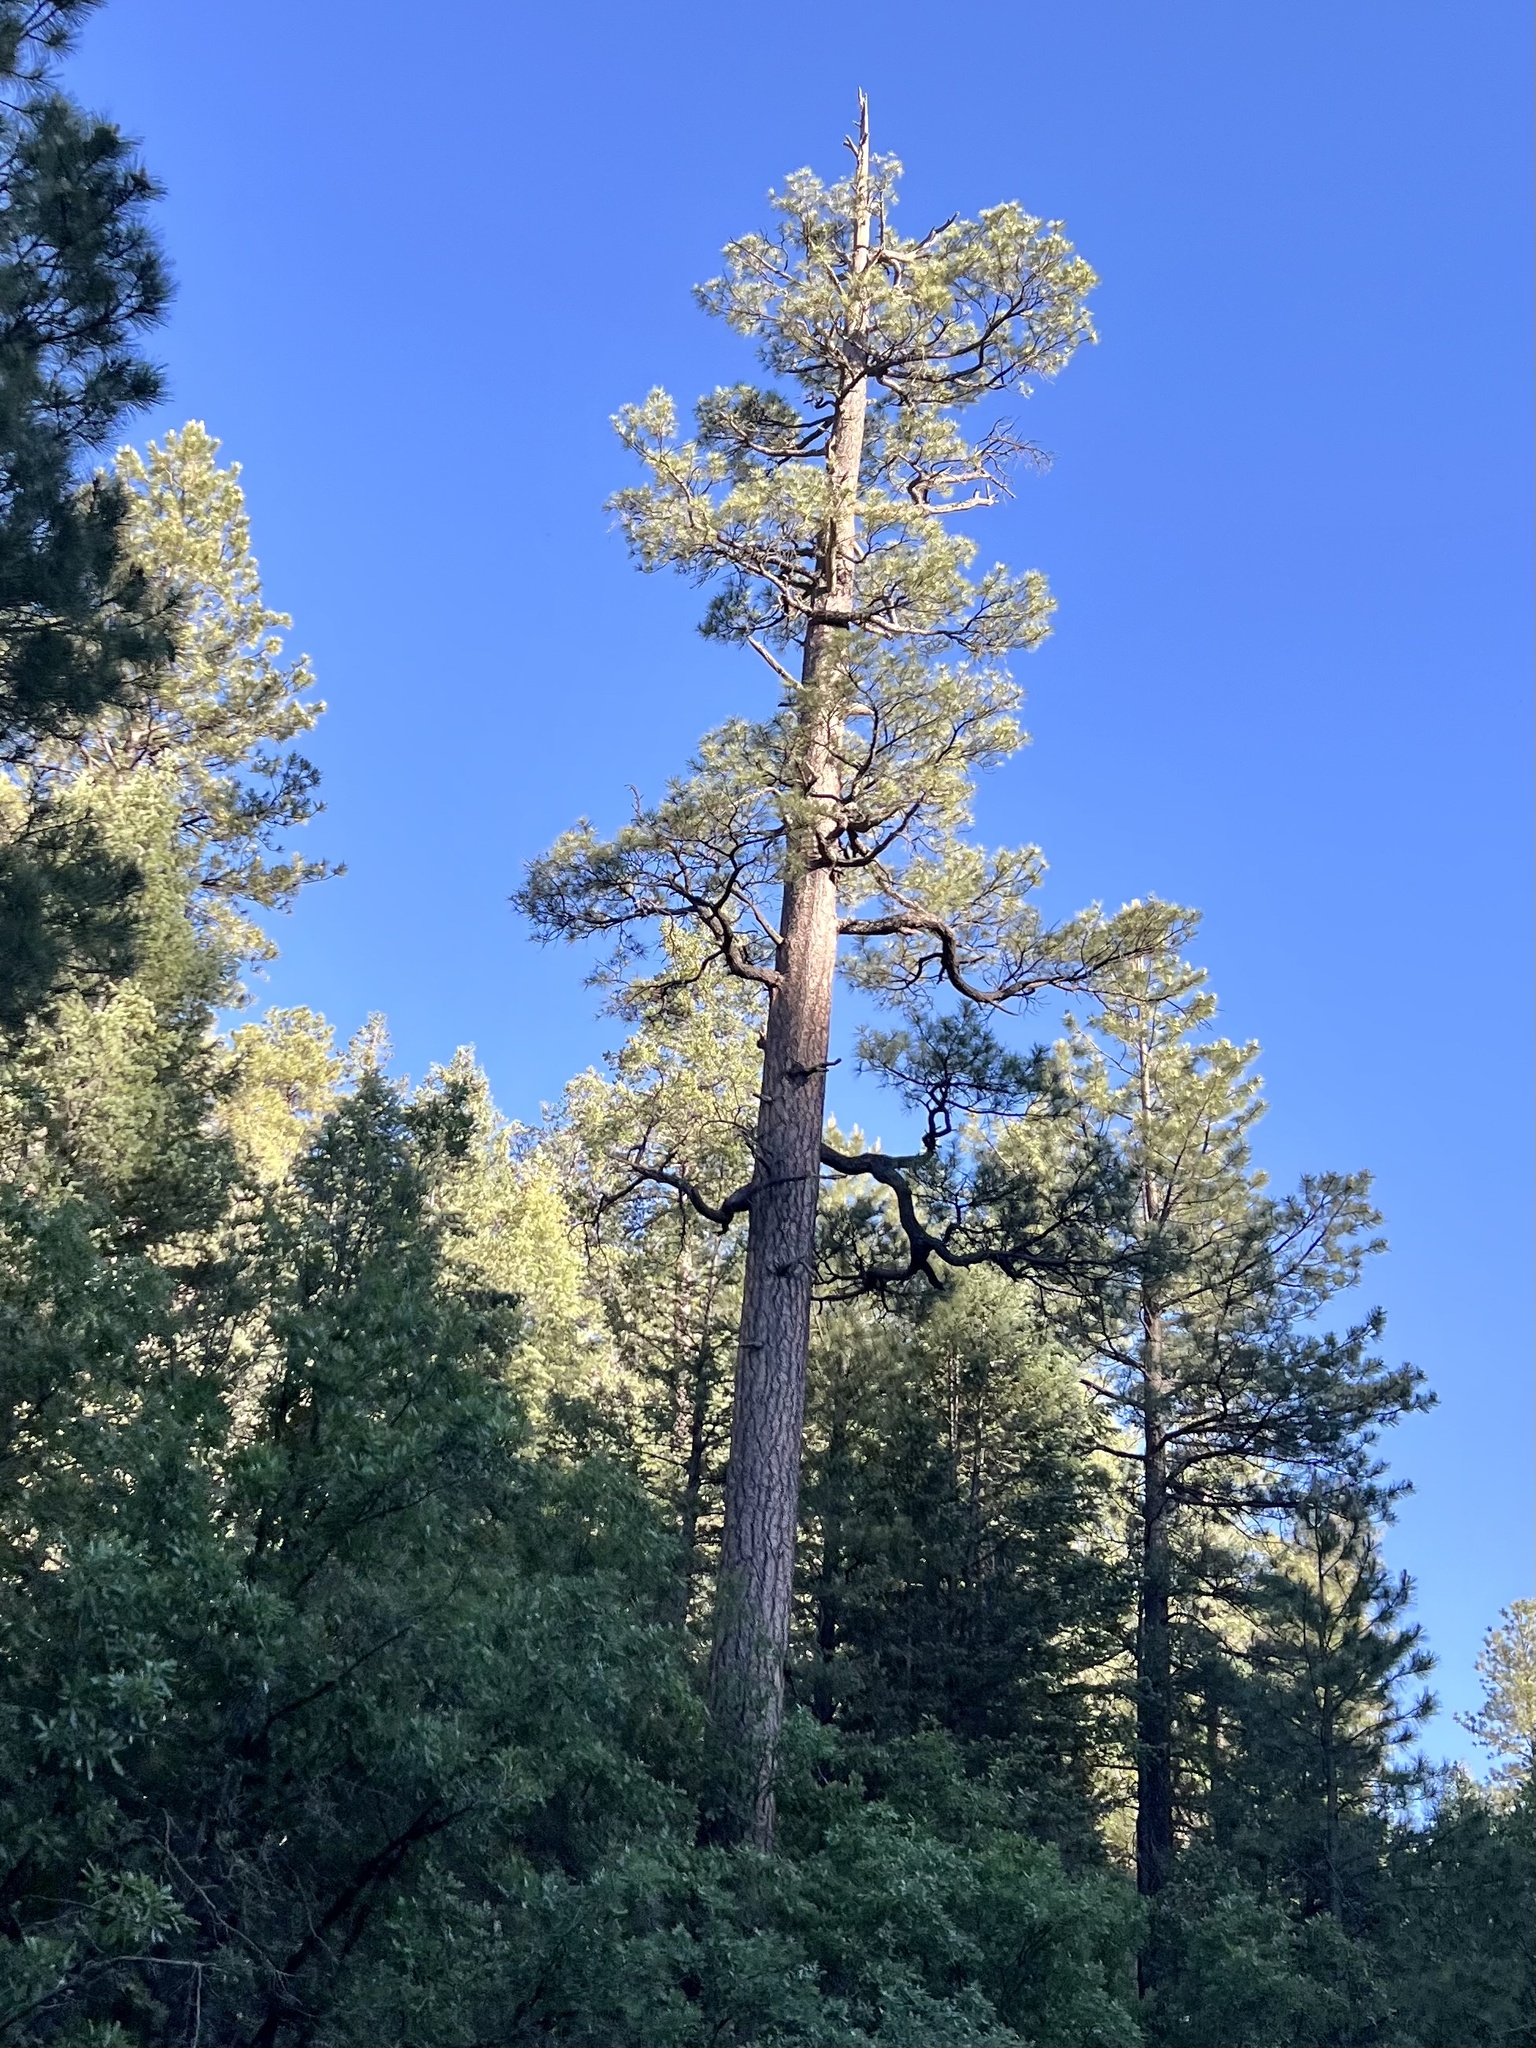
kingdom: Plantae
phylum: Tracheophyta
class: Pinopsida
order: Pinales
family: Pinaceae
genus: Pinus
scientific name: Pinus ponderosa
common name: Western yellow-pine
